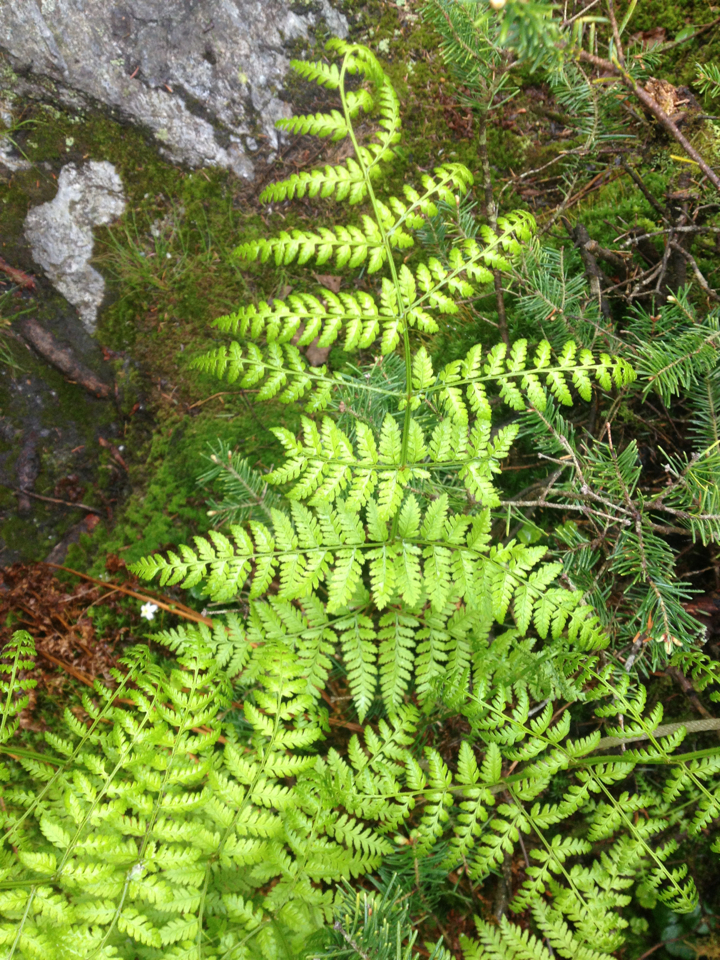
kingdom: Plantae
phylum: Tracheophyta
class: Polypodiopsida
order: Polypodiales
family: Dryopteridaceae
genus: Dryopteris
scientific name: Dryopteris campyloptera
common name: Mountain wood fern
